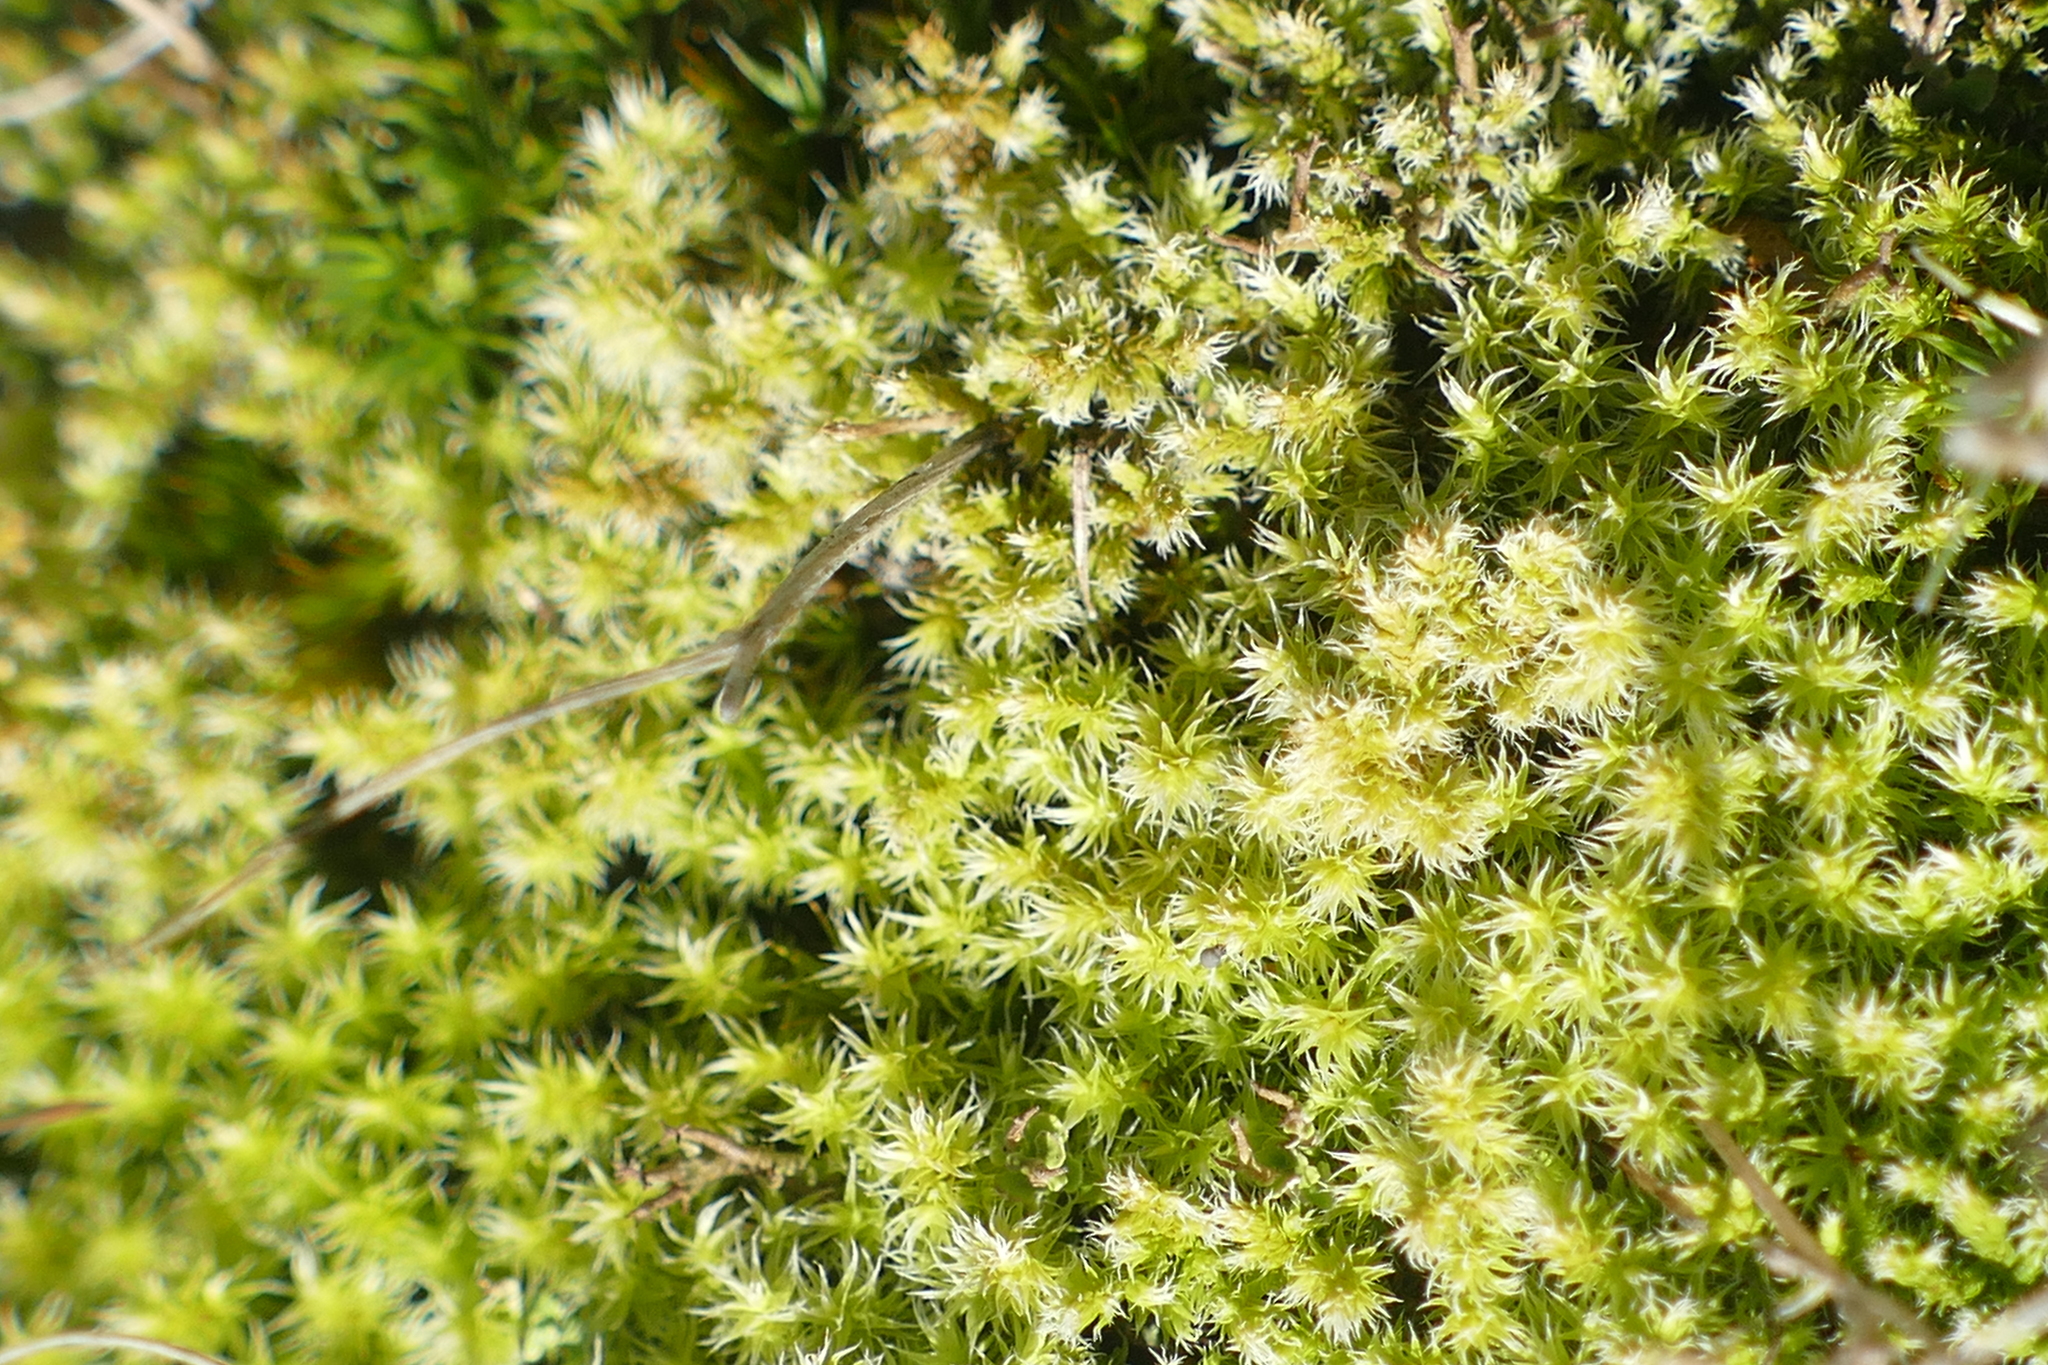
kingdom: Plantae
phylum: Bryophyta
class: Bryopsida
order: Grimmiales
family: Grimmiaceae
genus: Niphotrichum
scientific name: Niphotrichum elongatum
